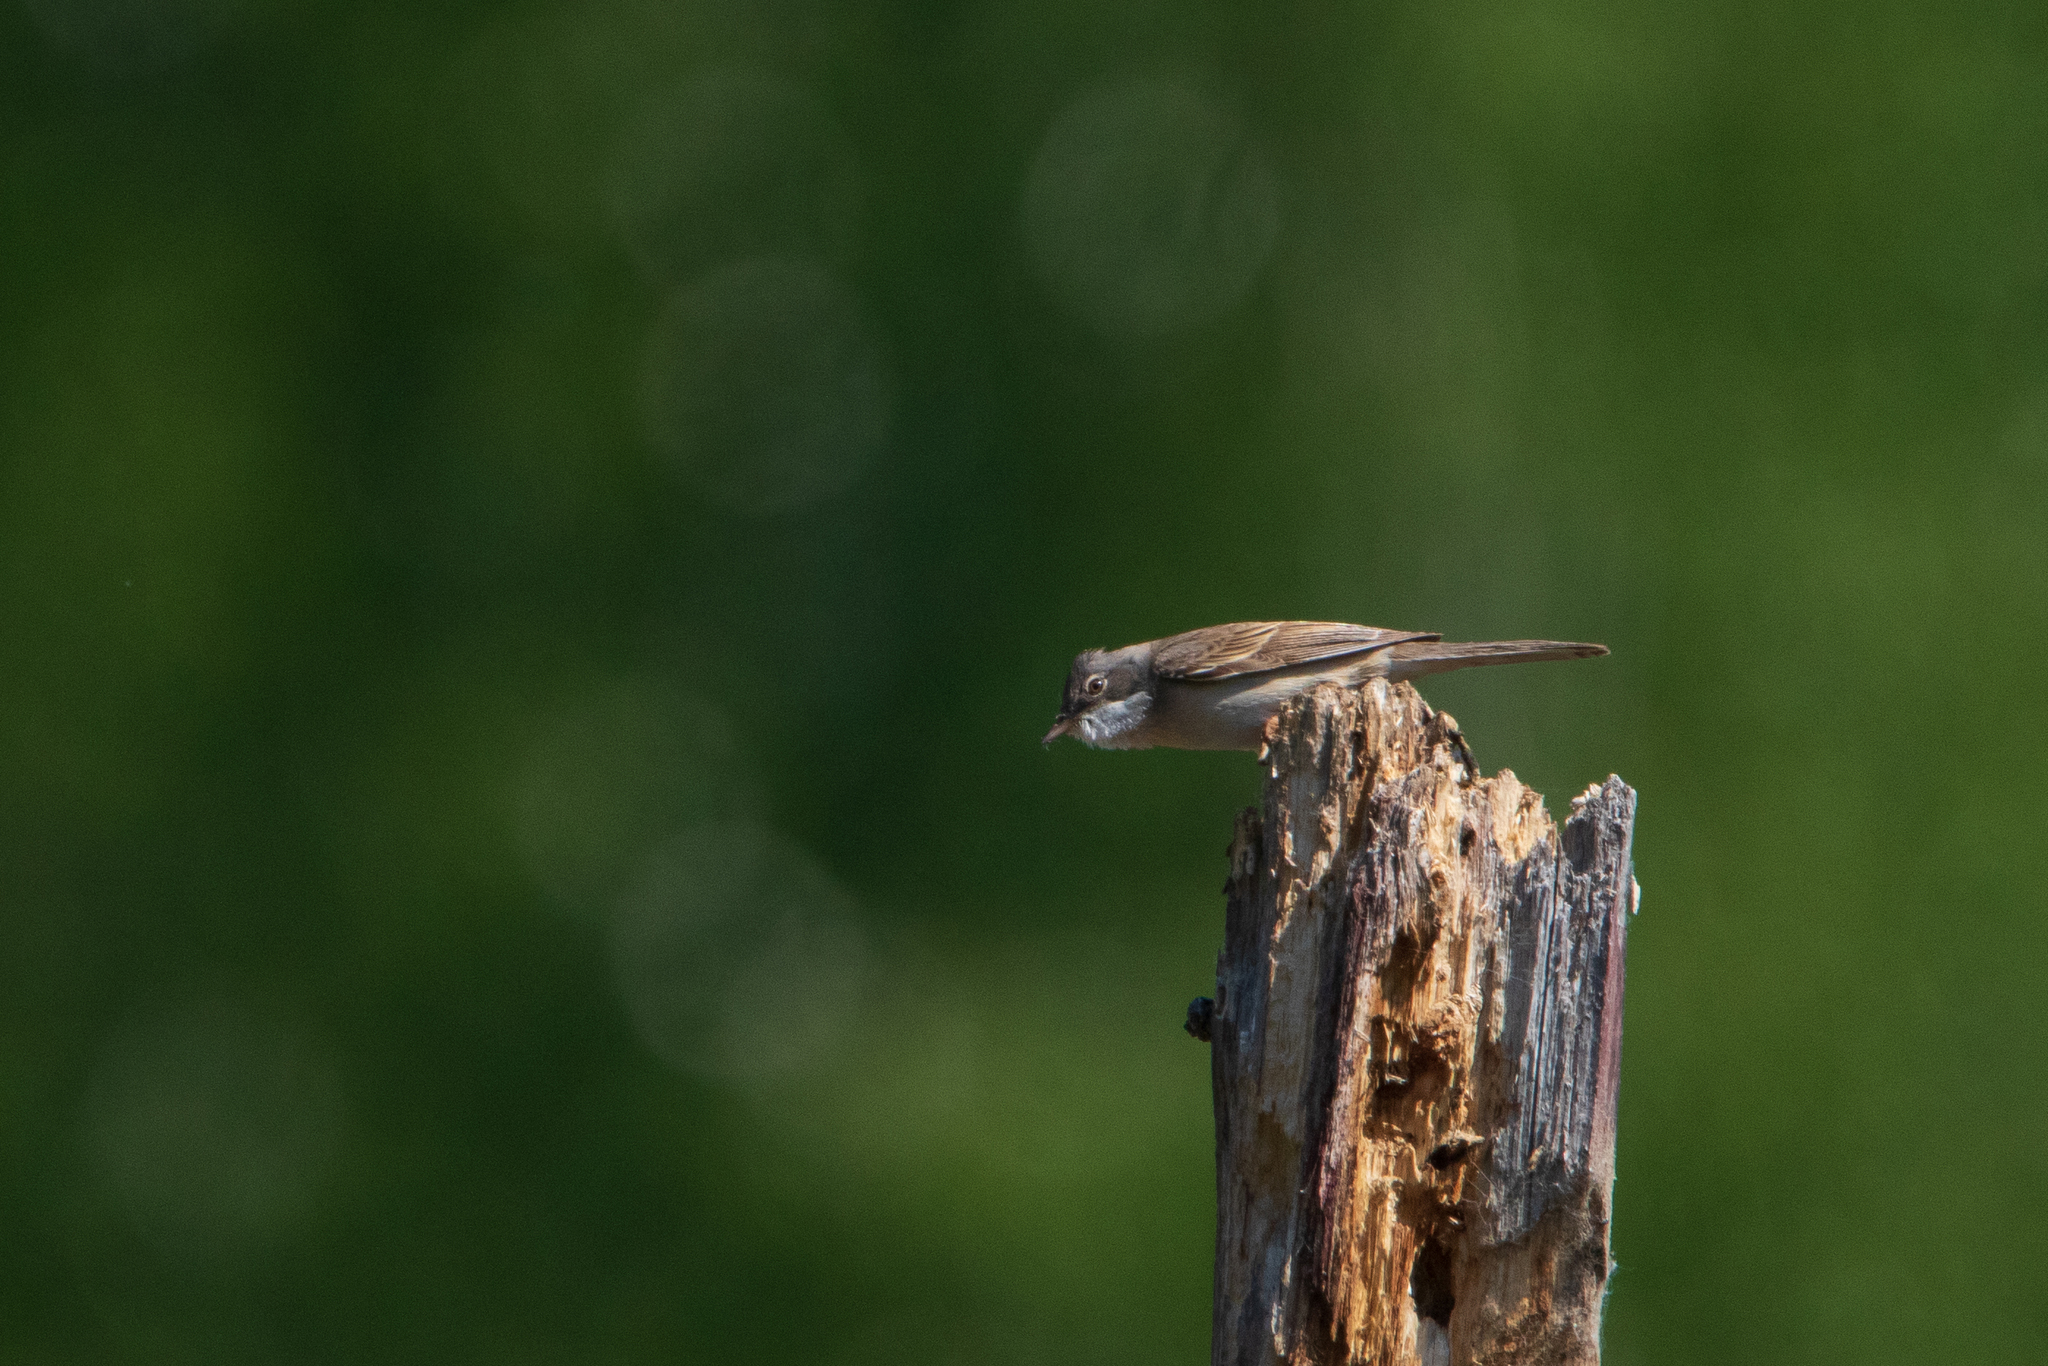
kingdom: Animalia
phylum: Chordata
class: Aves
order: Passeriformes
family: Sylviidae
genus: Sylvia
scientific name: Sylvia communis
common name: Common whitethroat
